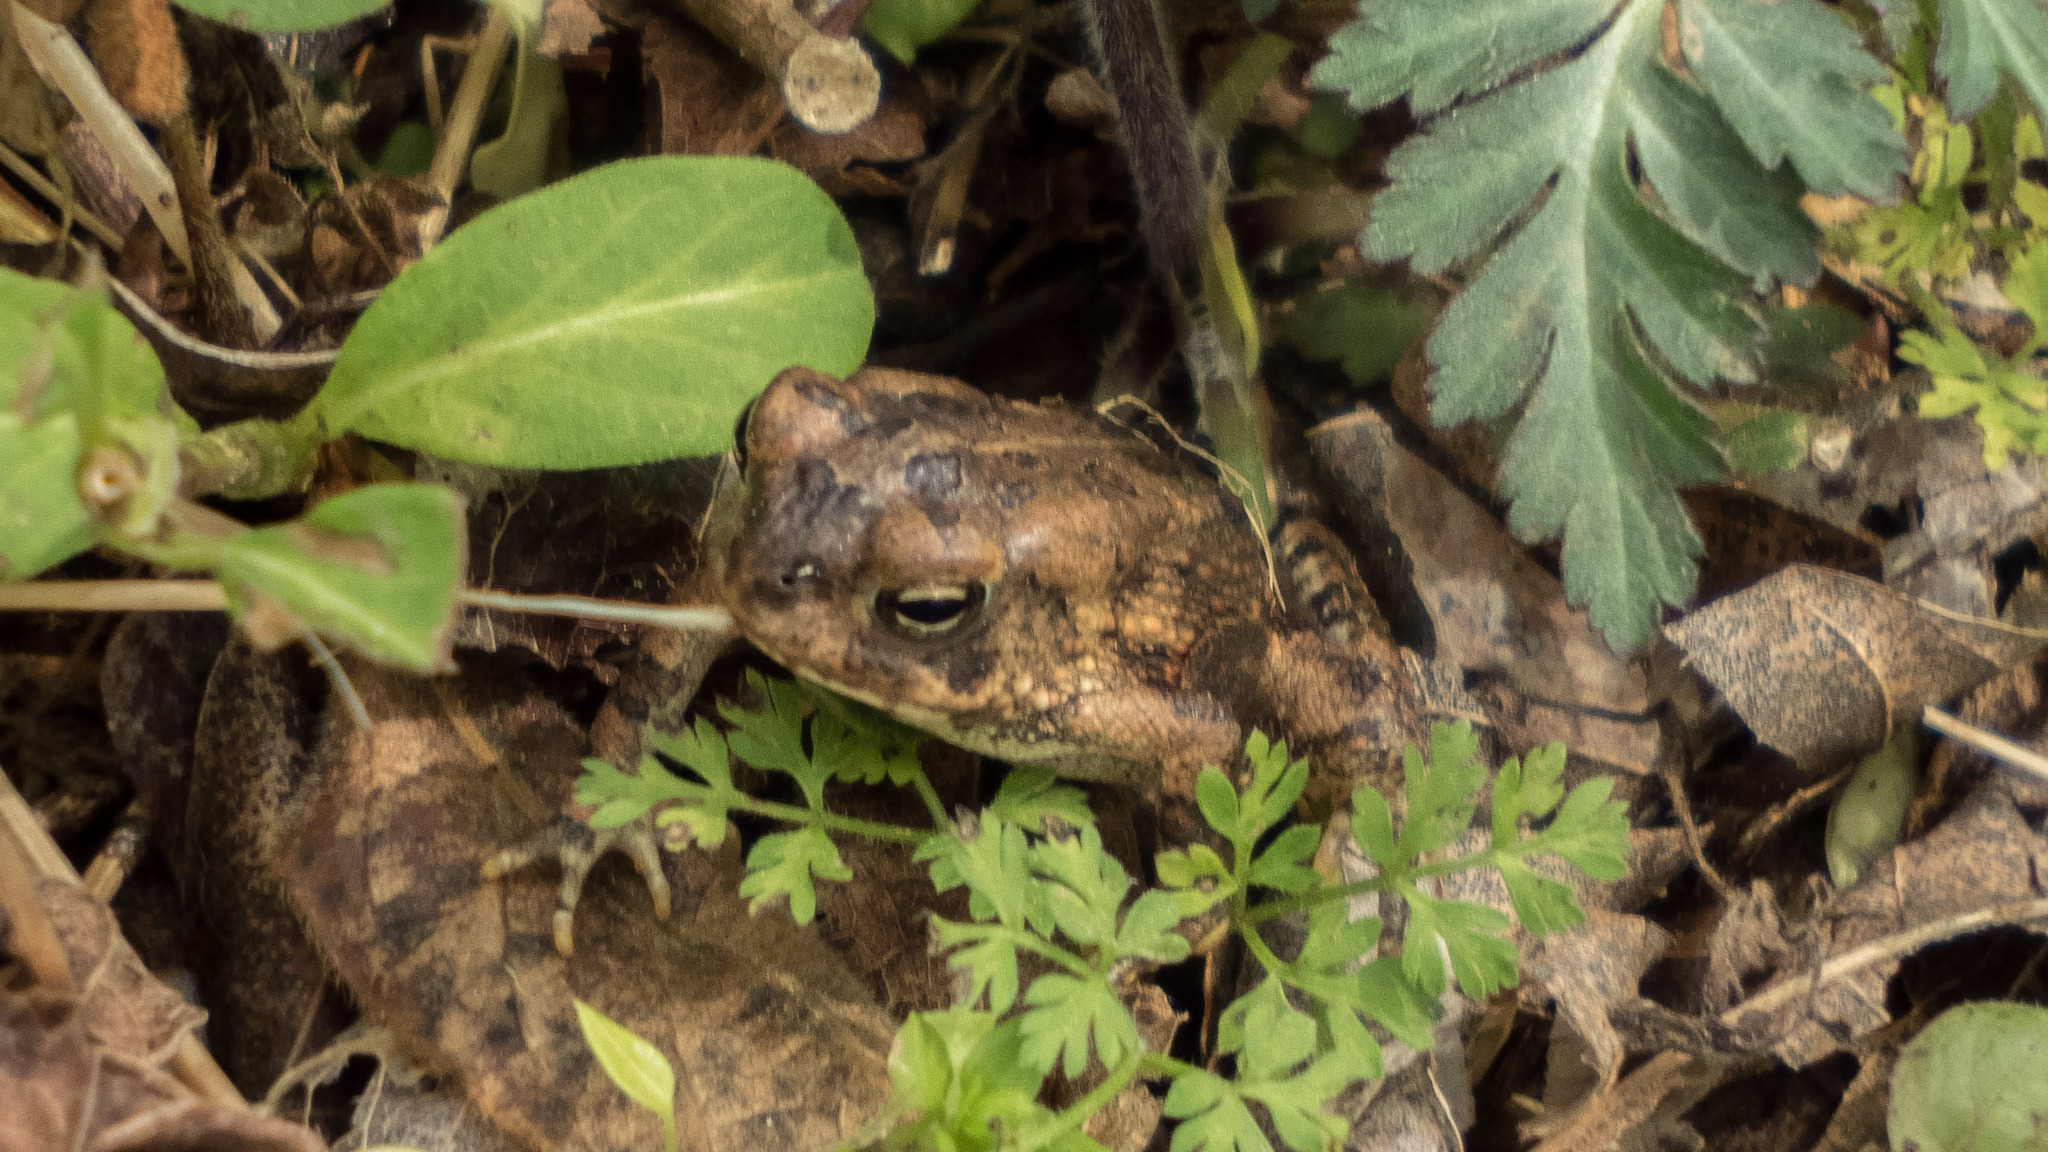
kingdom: Animalia
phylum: Chordata
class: Amphibia
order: Anura
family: Bufonidae
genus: Anaxyrus
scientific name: Anaxyrus fowleri
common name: Fowler's toad
